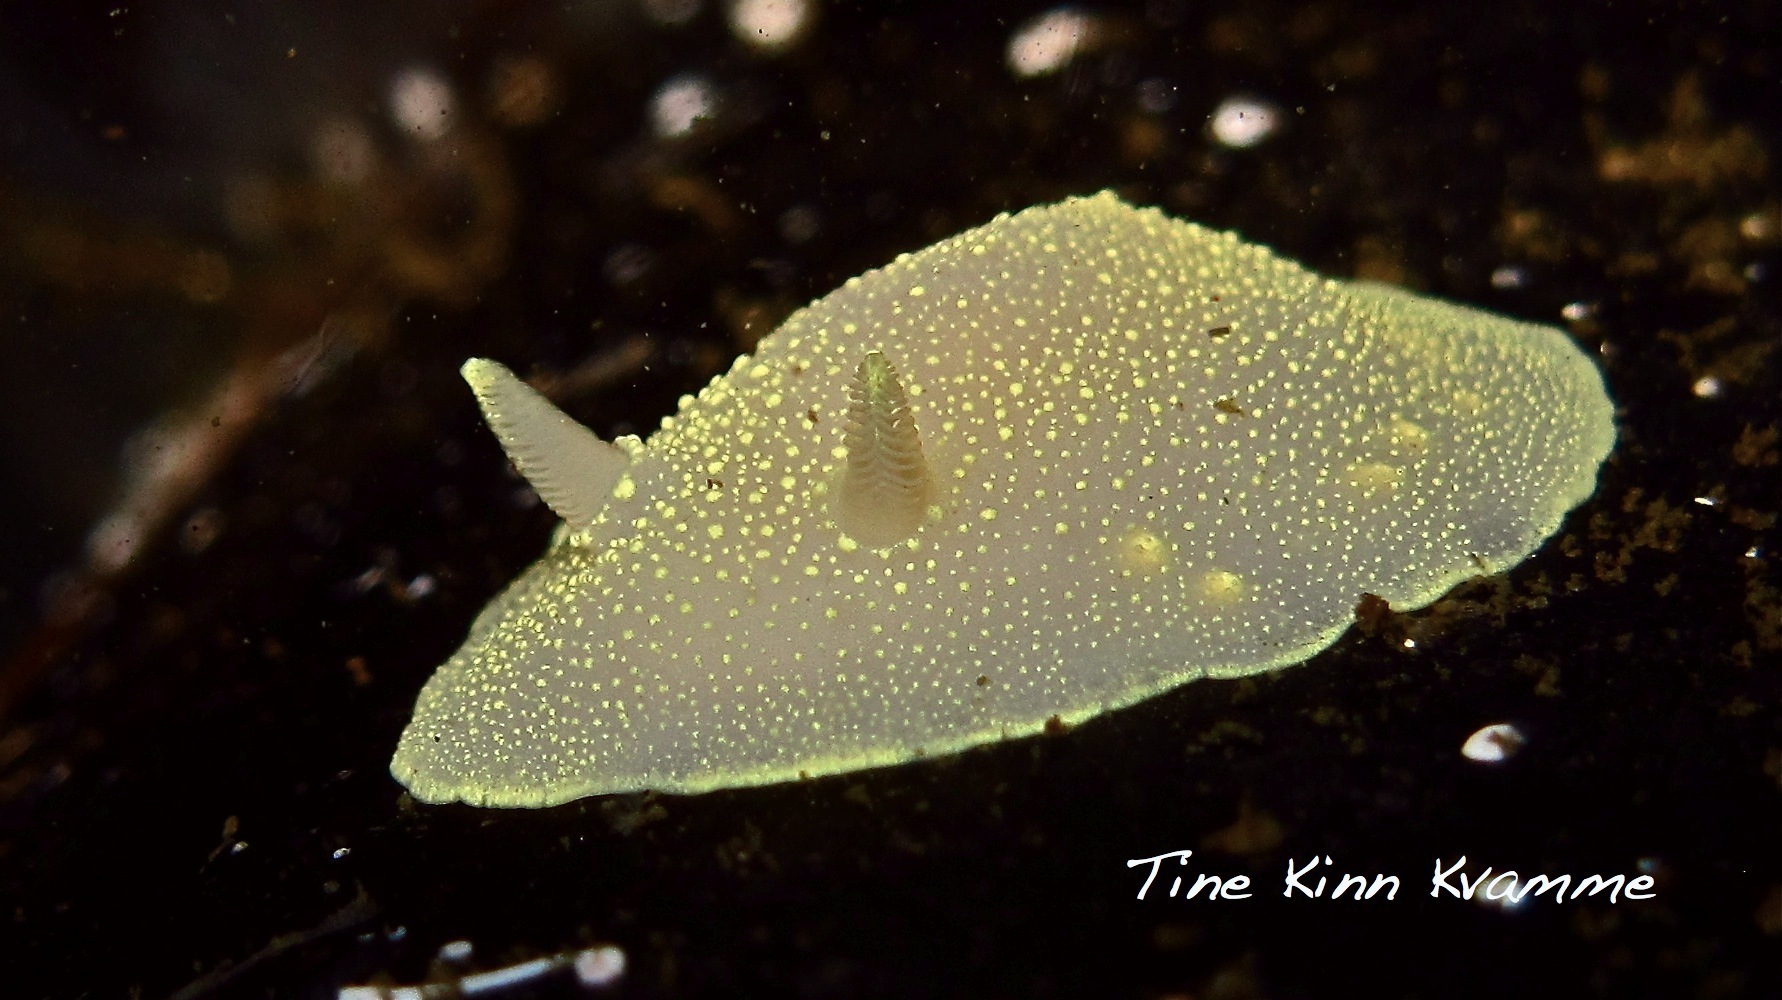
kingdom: Animalia
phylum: Mollusca
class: Gastropoda
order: Nudibranchia
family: Cadlinidae
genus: Cadlina
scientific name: Cadlina laevis
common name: White atlantic cadlina
